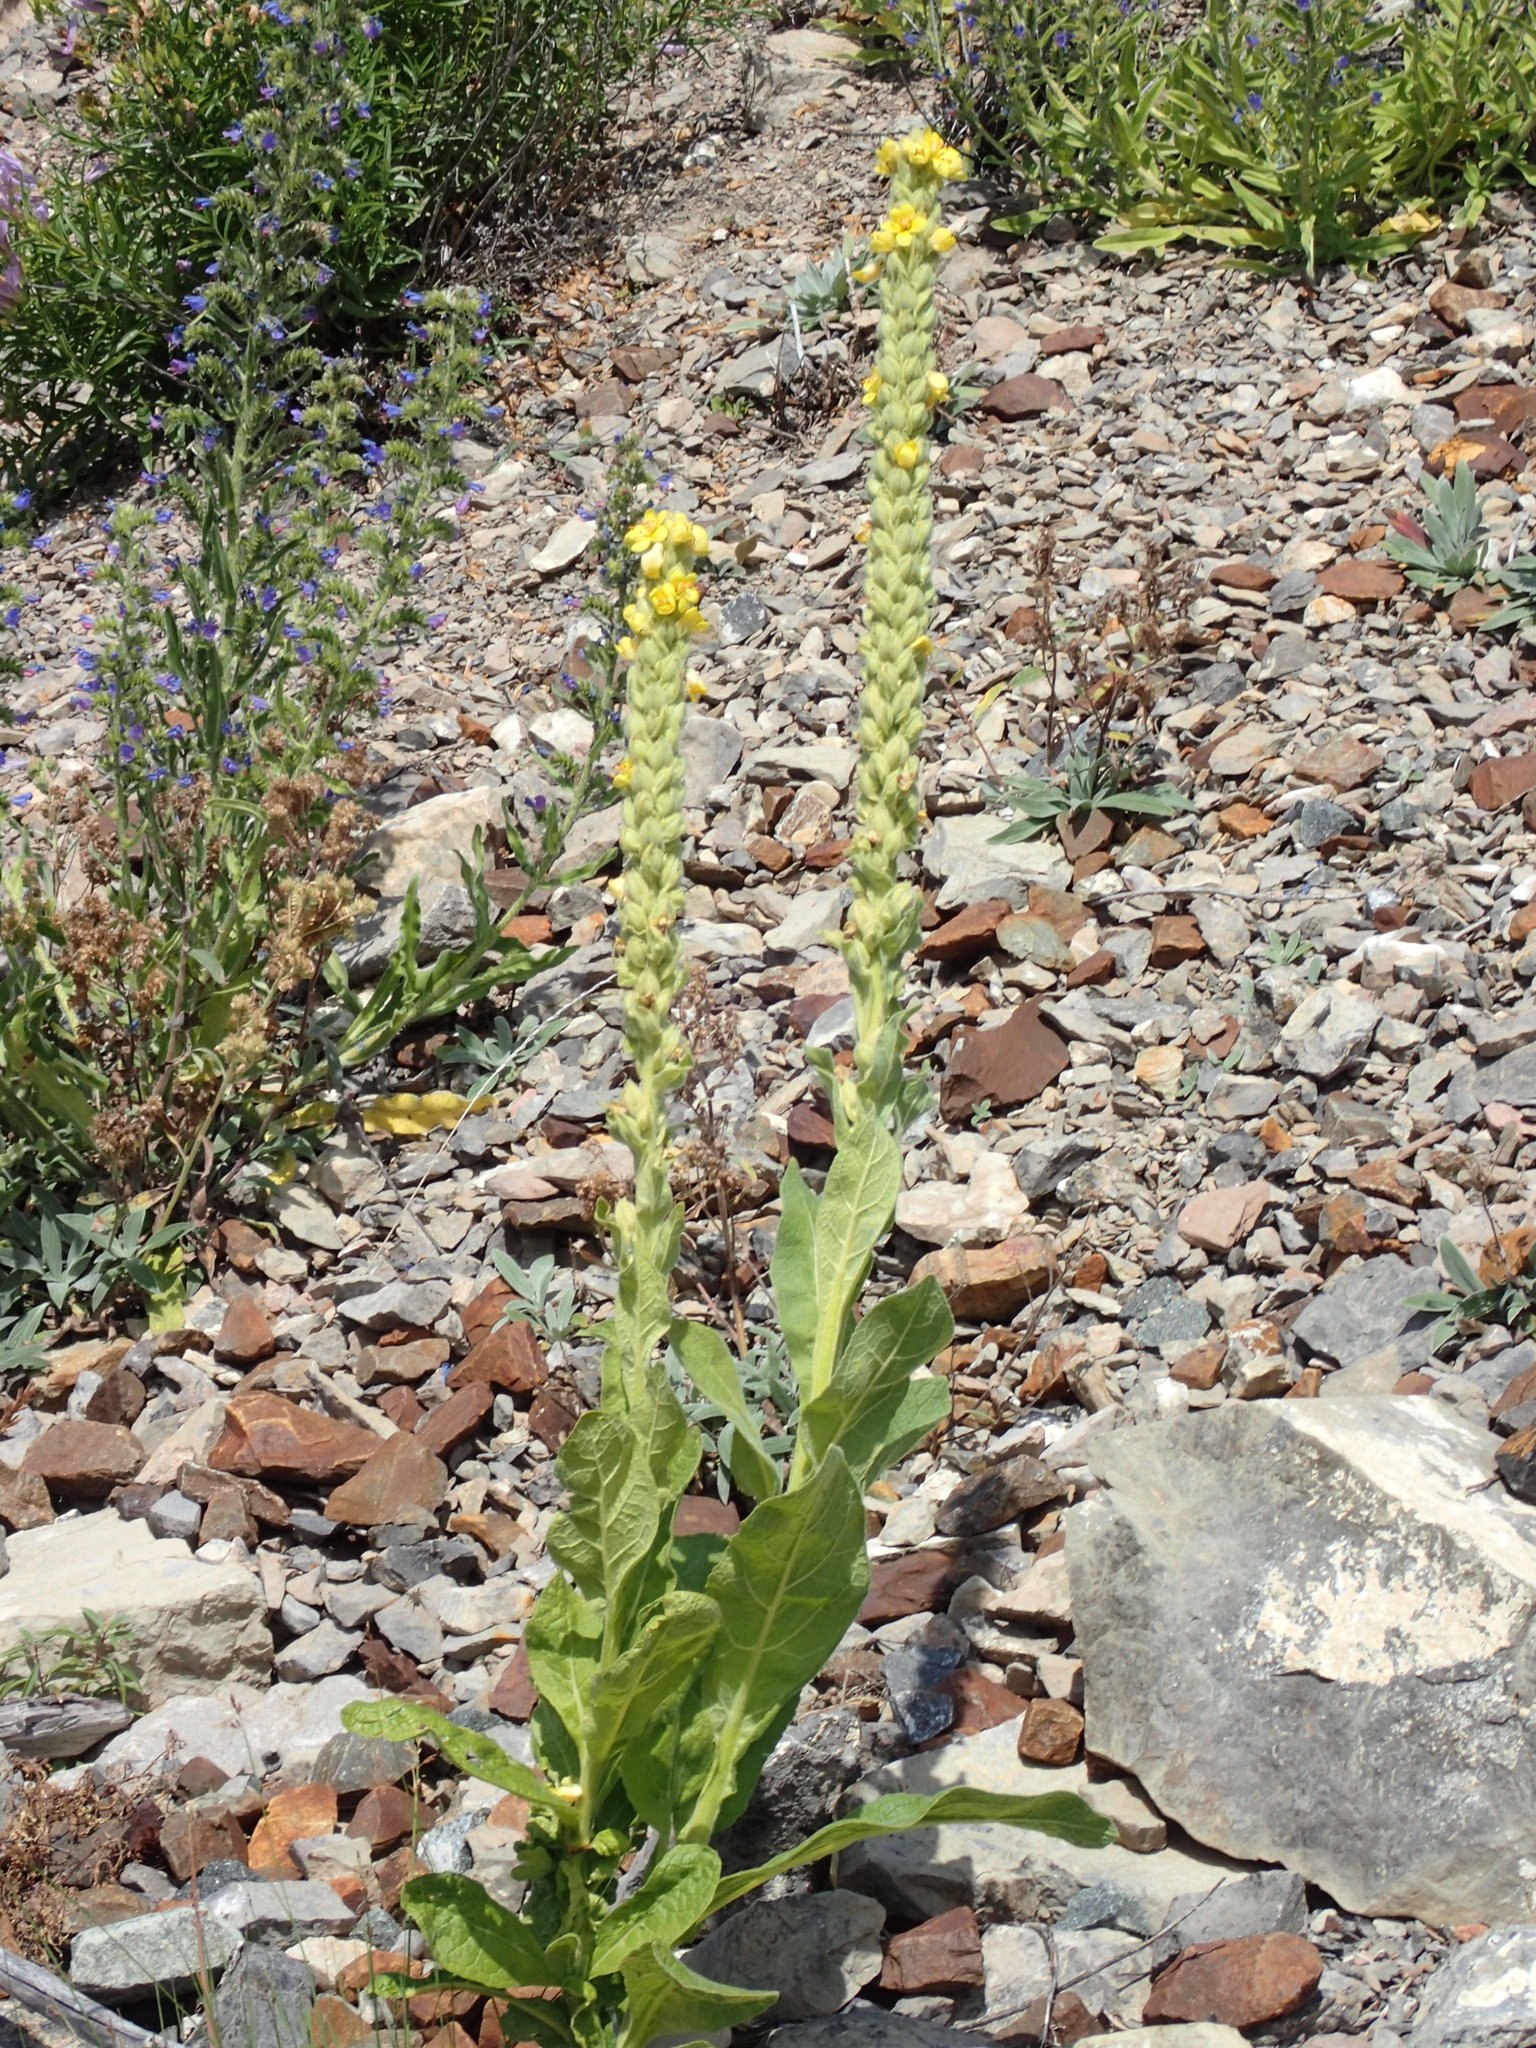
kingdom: Plantae
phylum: Tracheophyta
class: Magnoliopsida
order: Lamiales
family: Scrophulariaceae
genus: Verbascum
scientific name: Verbascum thapsus
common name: Common mullein
